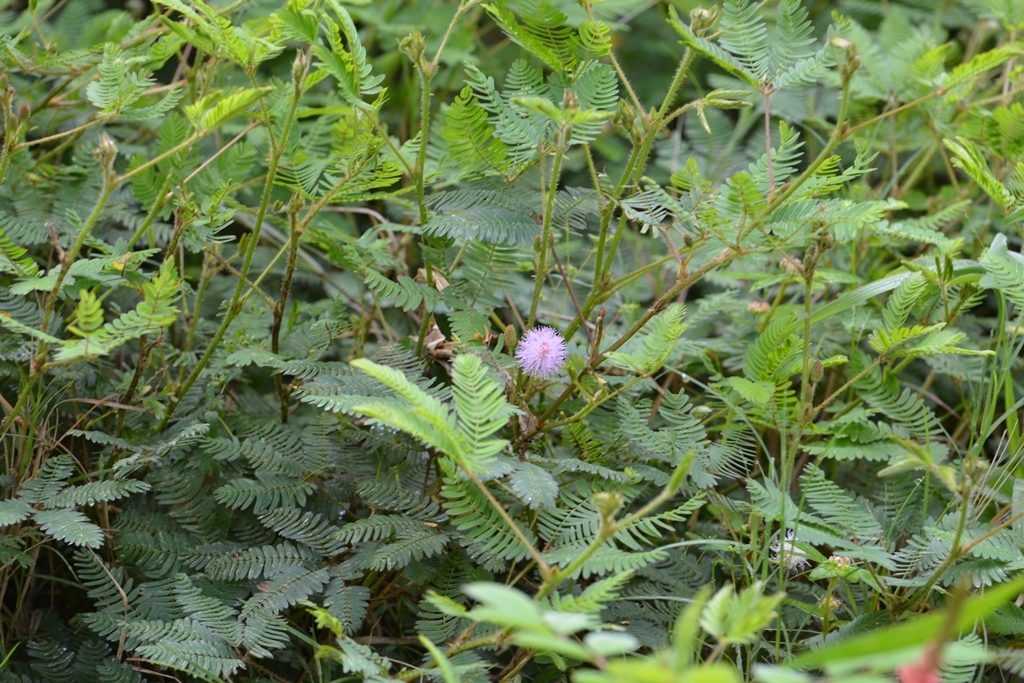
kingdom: Plantae
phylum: Tracheophyta
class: Magnoliopsida
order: Fabales
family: Fabaceae
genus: Mimosa
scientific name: Mimosa pudica
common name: Sensitive plant
